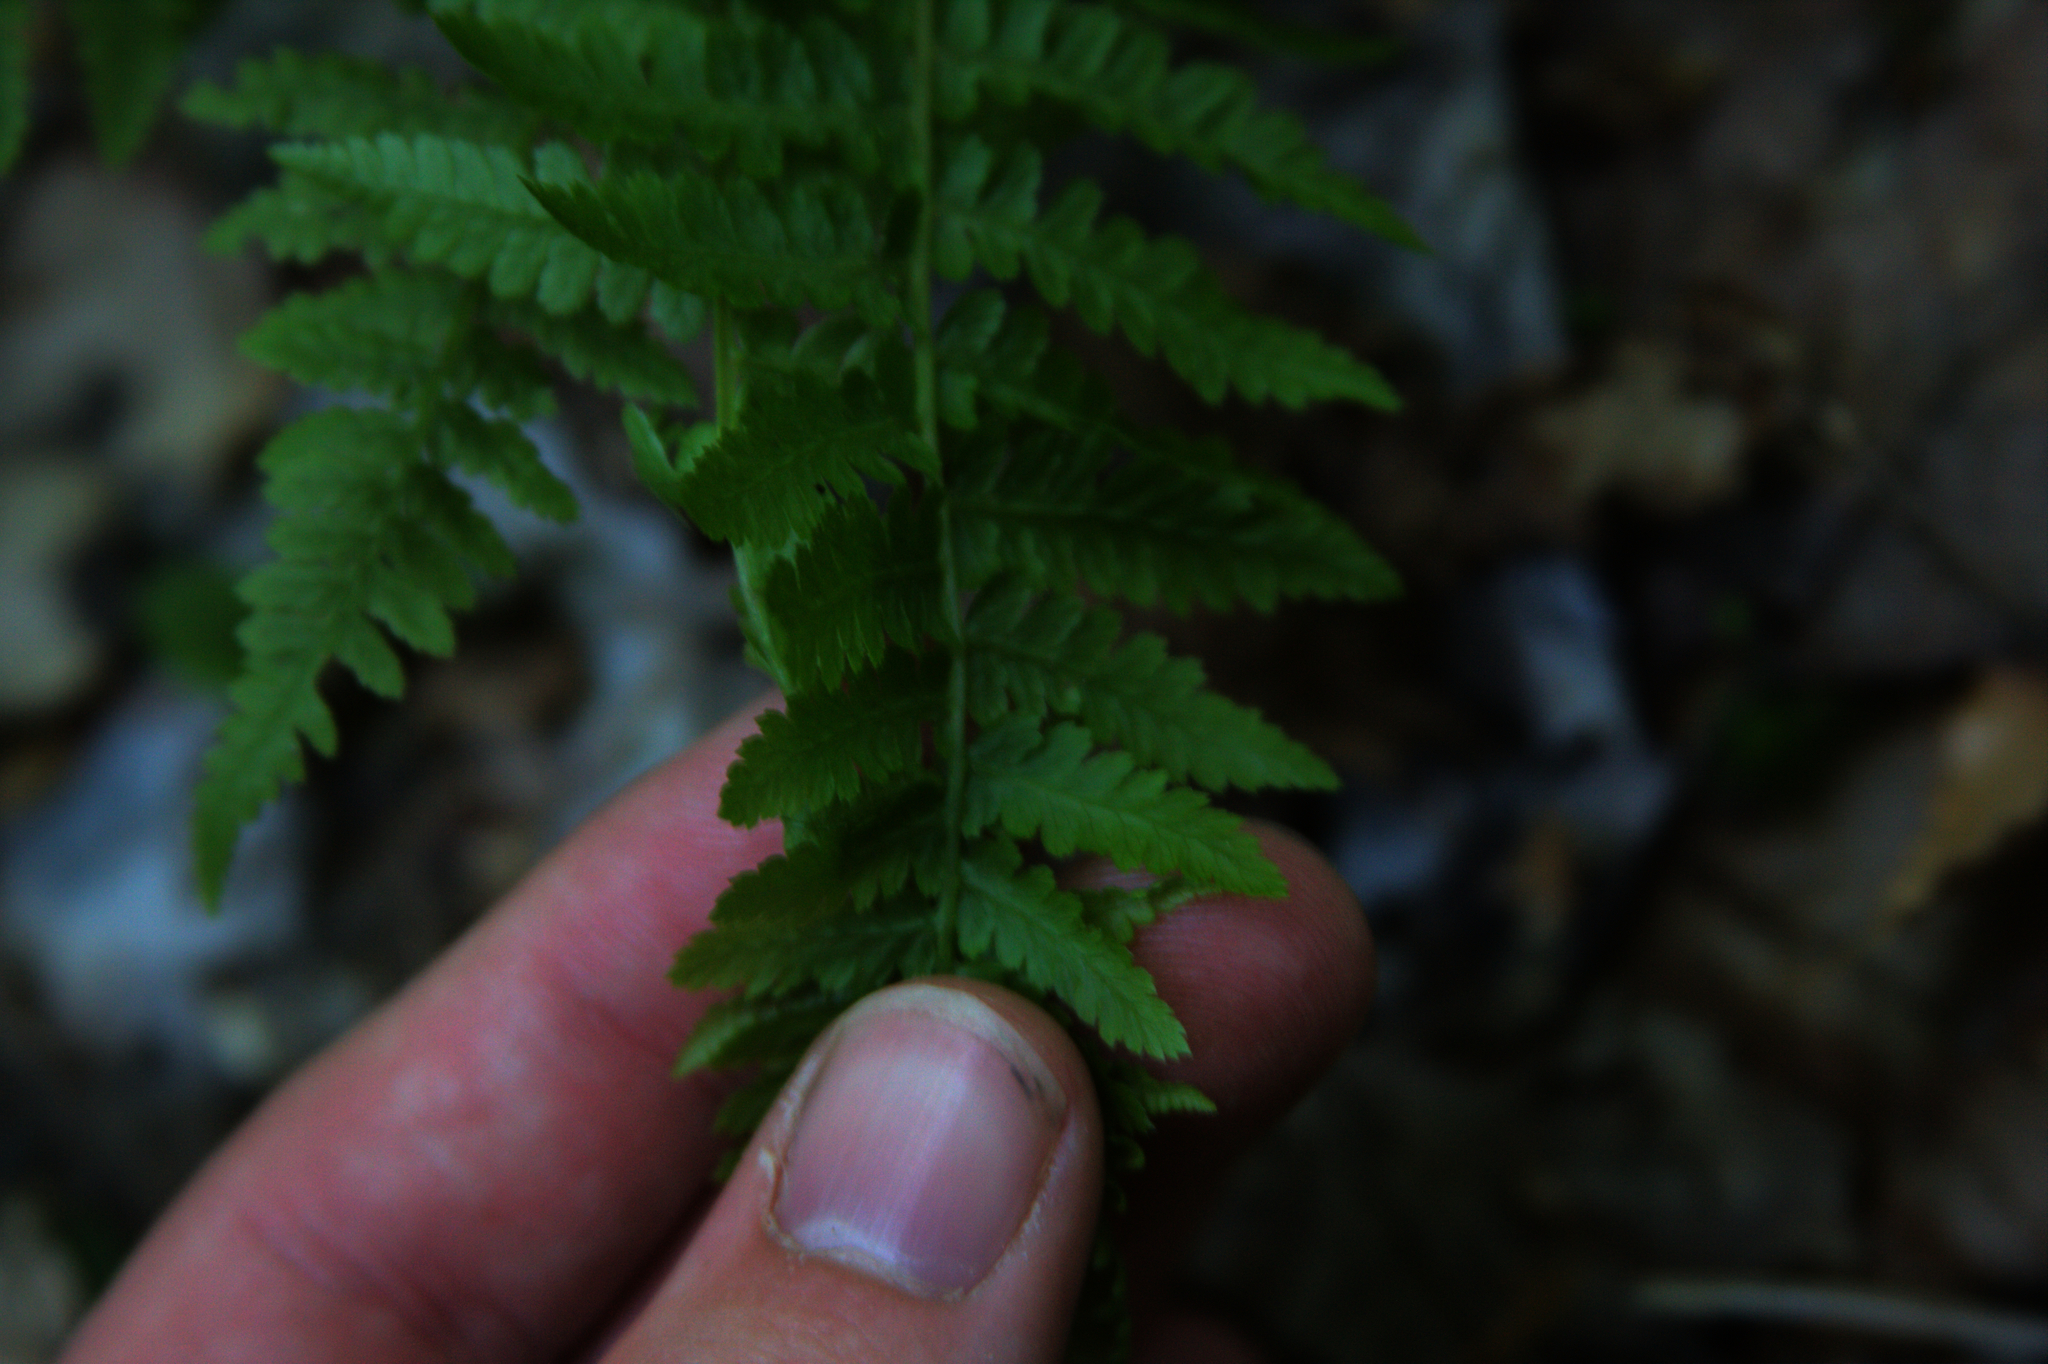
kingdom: Plantae
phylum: Tracheophyta
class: Polypodiopsida
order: Polypodiales
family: Athyriaceae
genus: Athyrium
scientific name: Athyrium angustum
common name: Northern lady fern
